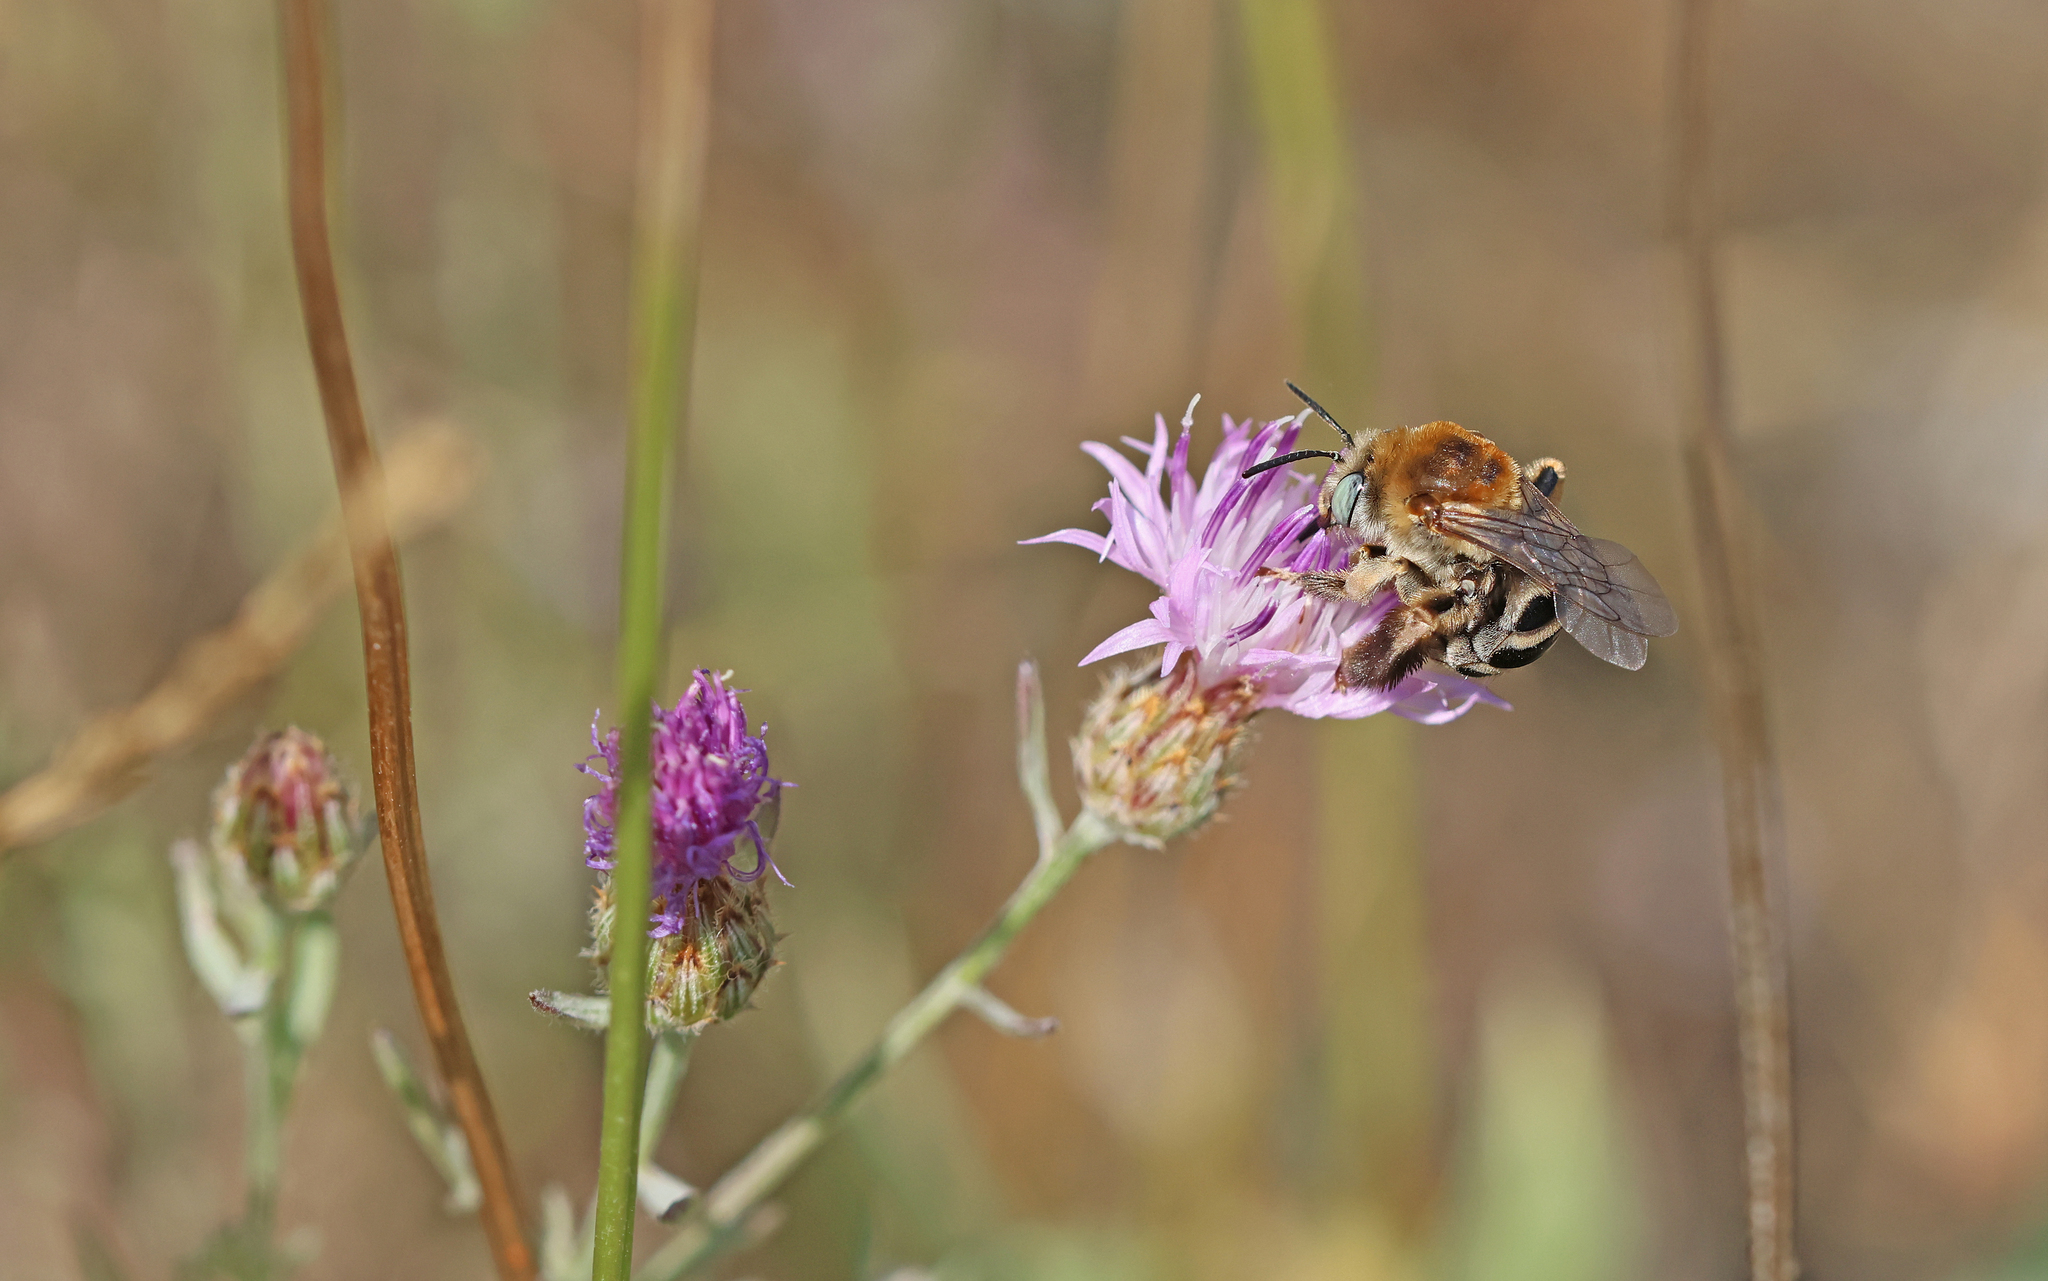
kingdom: Animalia
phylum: Arthropoda
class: Insecta
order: Hymenoptera
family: Apidae
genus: Tetraloniella
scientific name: Tetraloniella dentata
